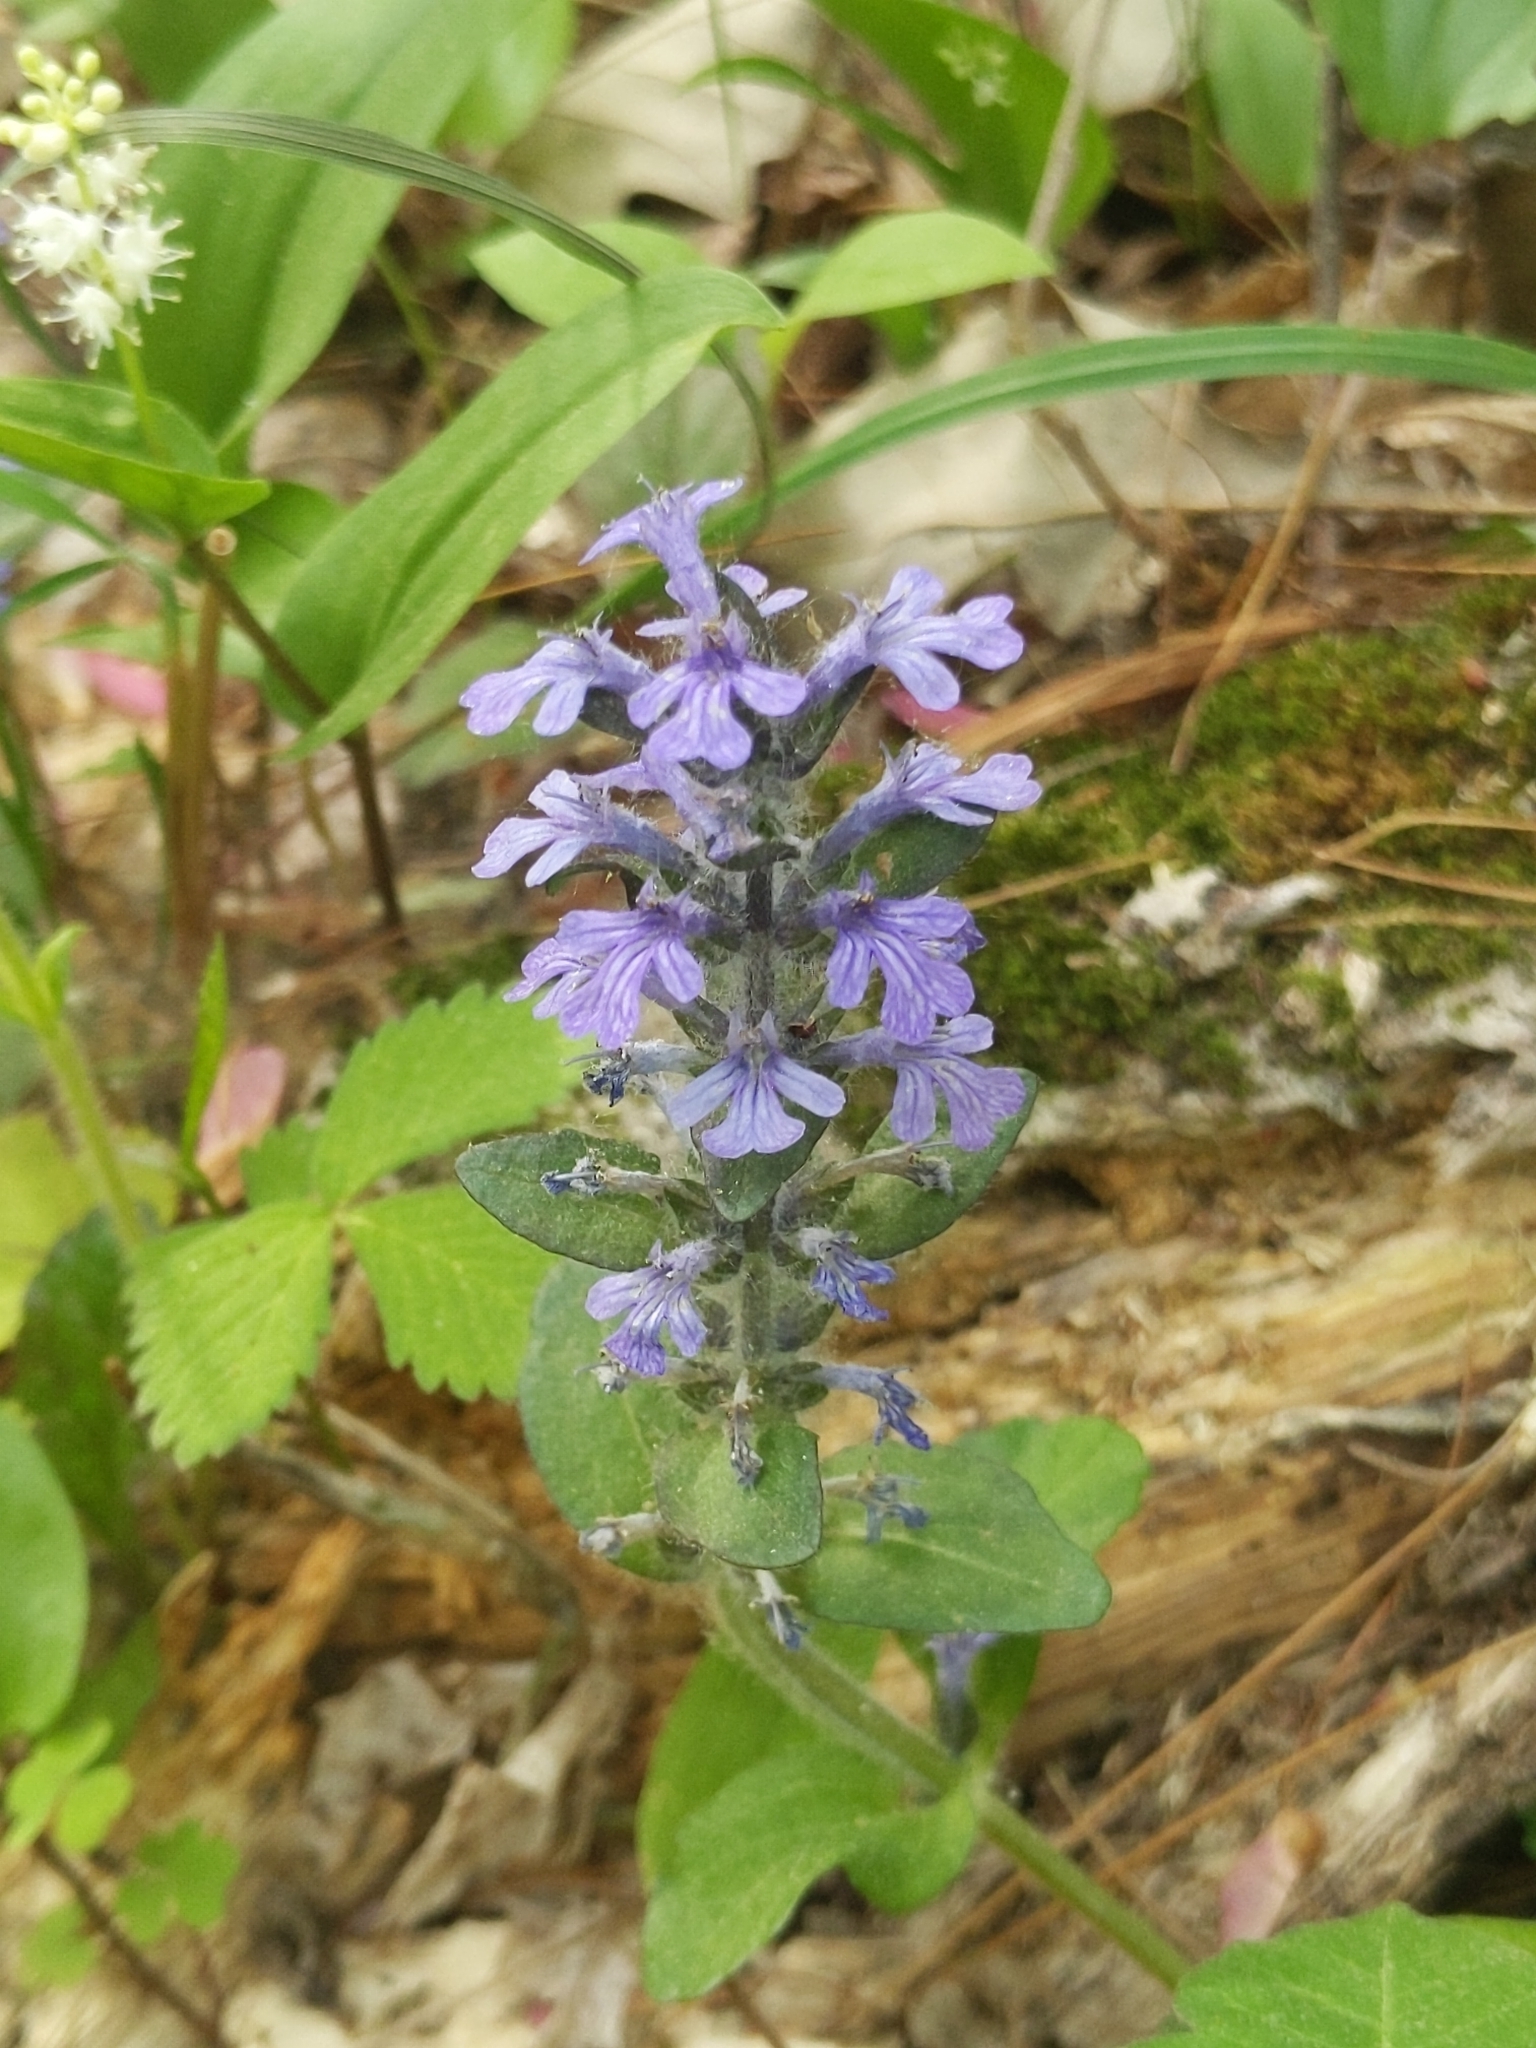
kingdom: Plantae
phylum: Tracheophyta
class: Magnoliopsida
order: Lamiales
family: Lamiaceae
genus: Ajuga
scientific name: Ajuga reptans
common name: Bugle
